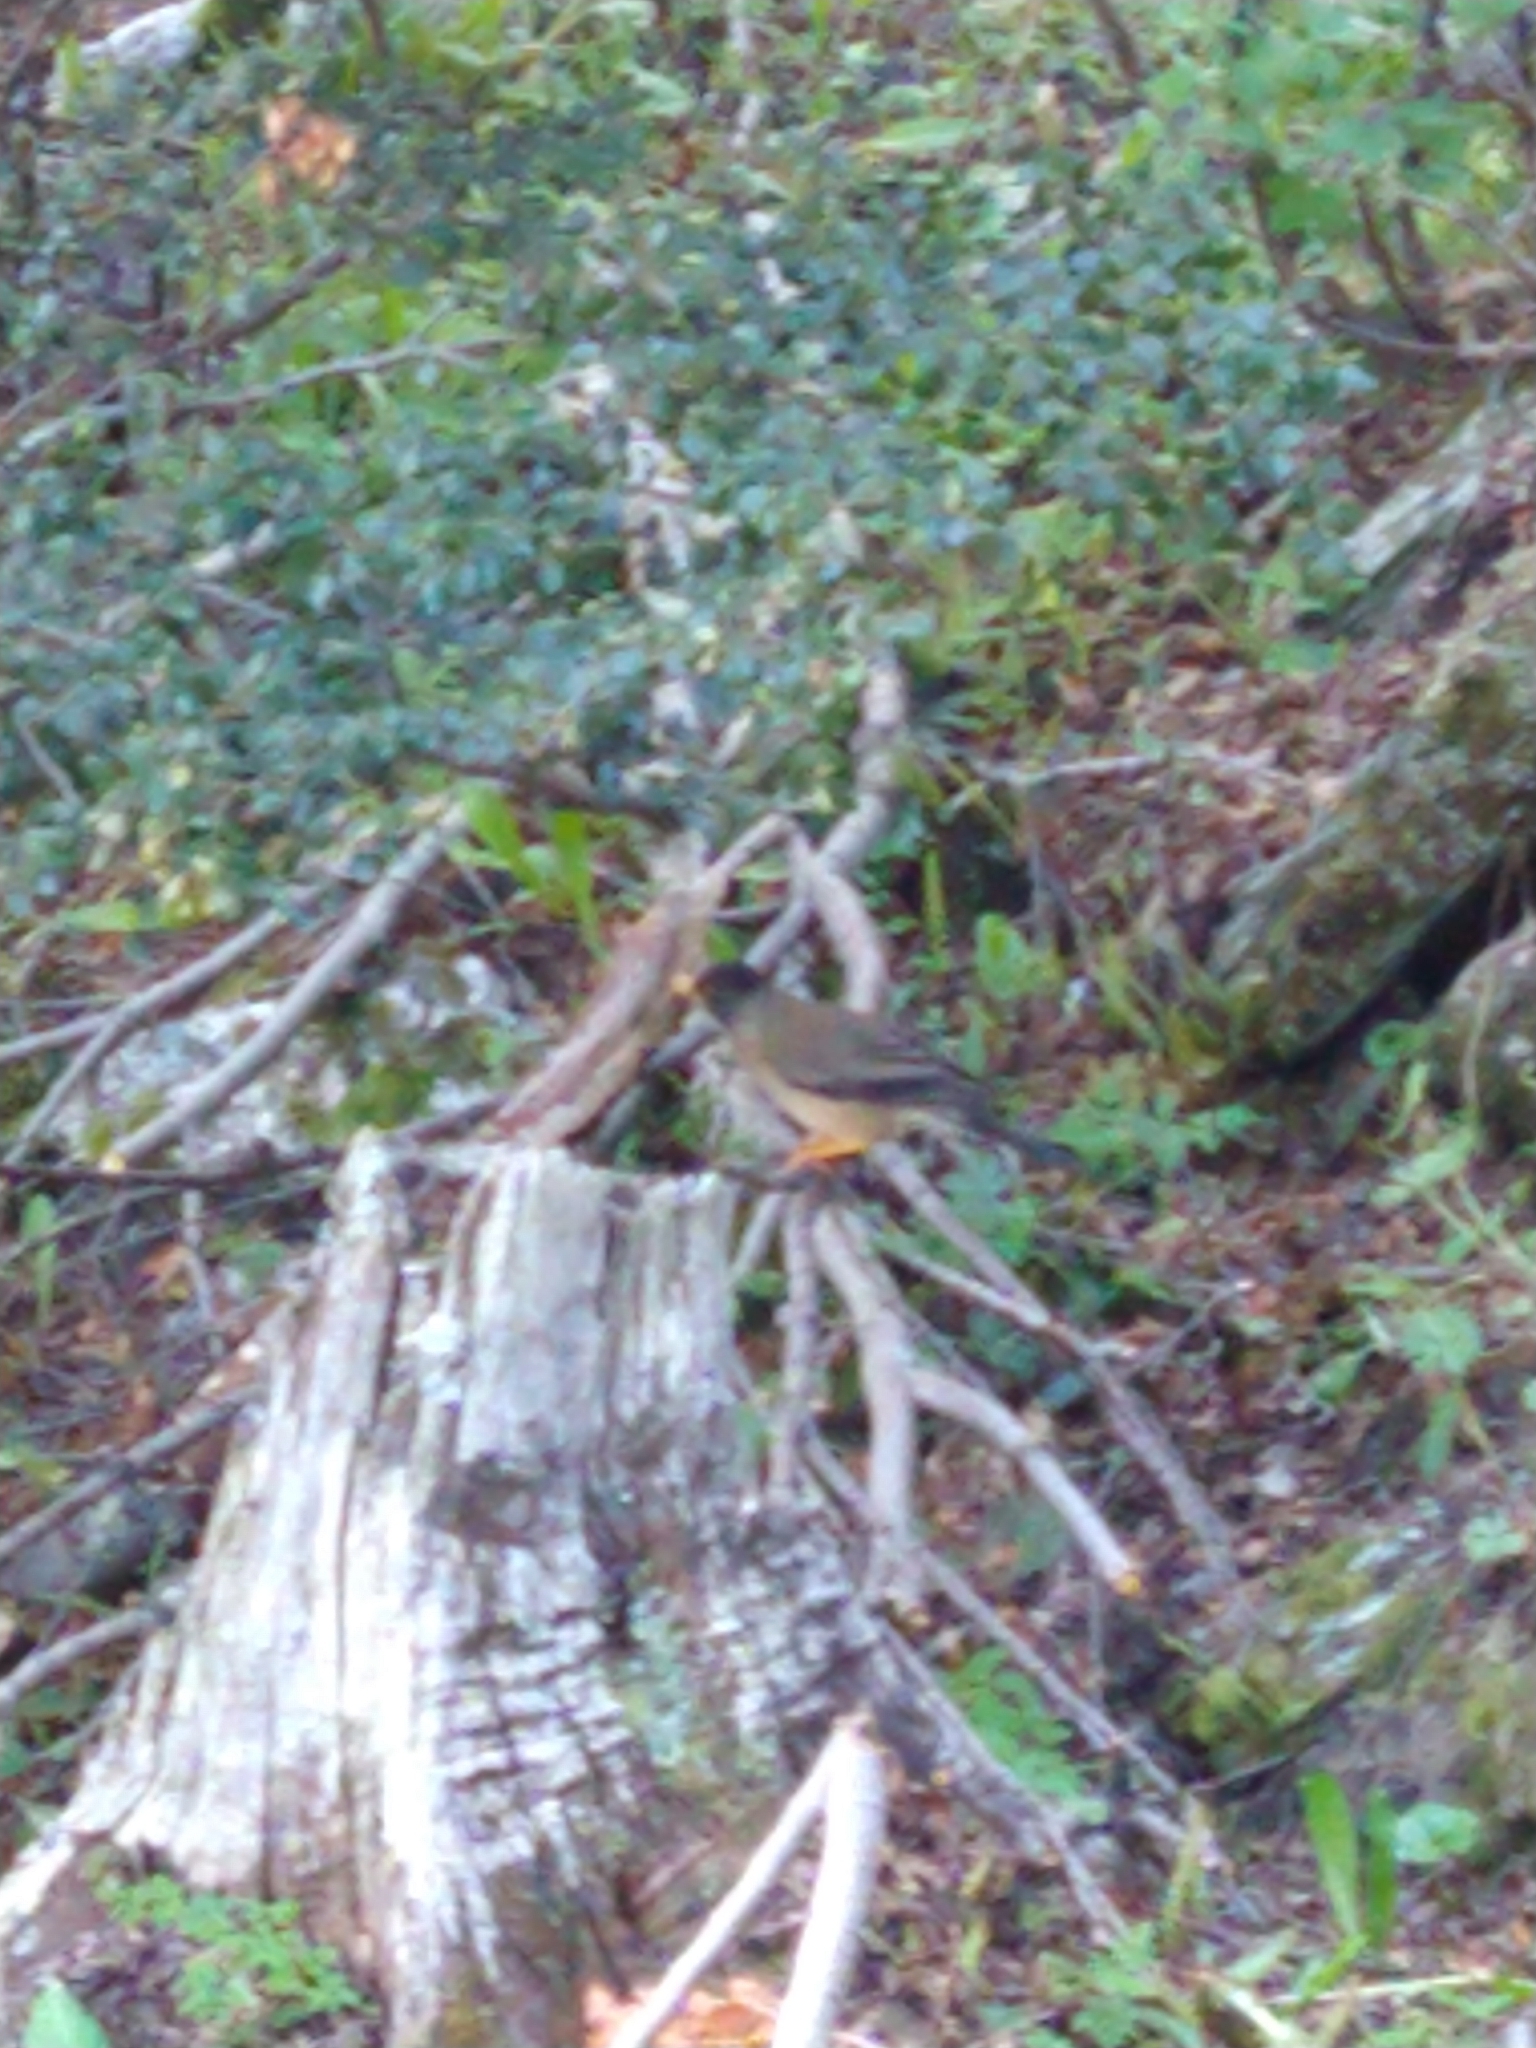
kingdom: Animalia
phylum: Chordata
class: Aves
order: Passeriformes
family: Turdidae
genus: Turdus
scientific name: Turdus falcklandii
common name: Austral thrush
